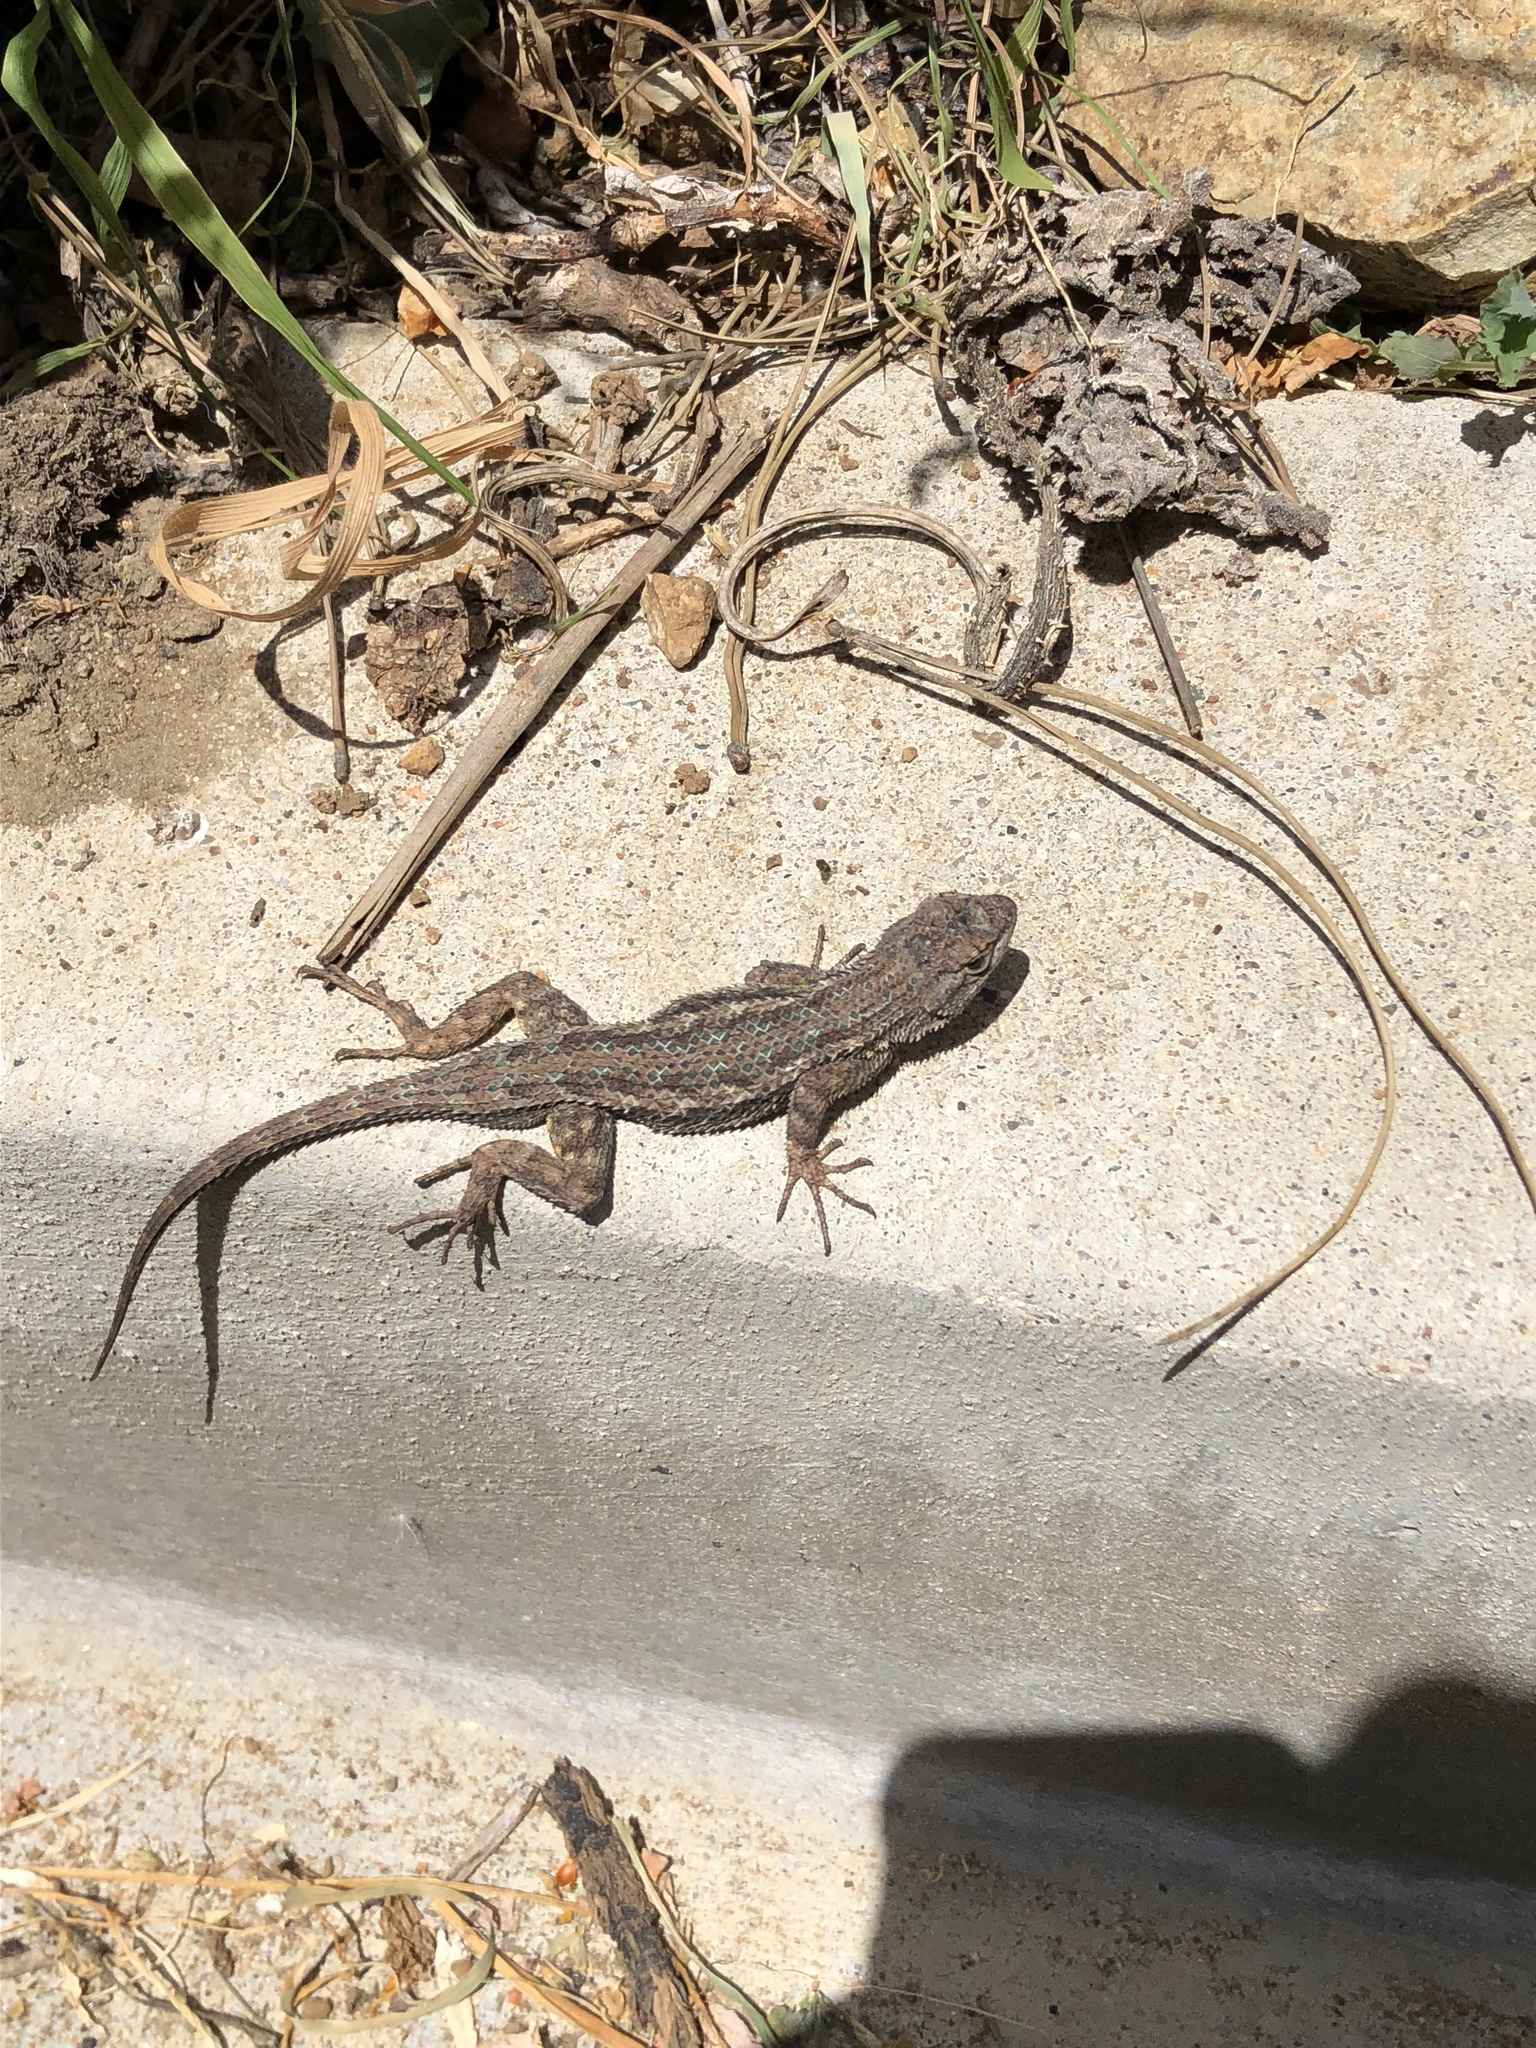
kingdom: Animalia
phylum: Chordata
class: Squamata
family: Phrynosomatidae
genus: Sceloporus
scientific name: Sceloporus occidentalis
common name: Western fence lizard
